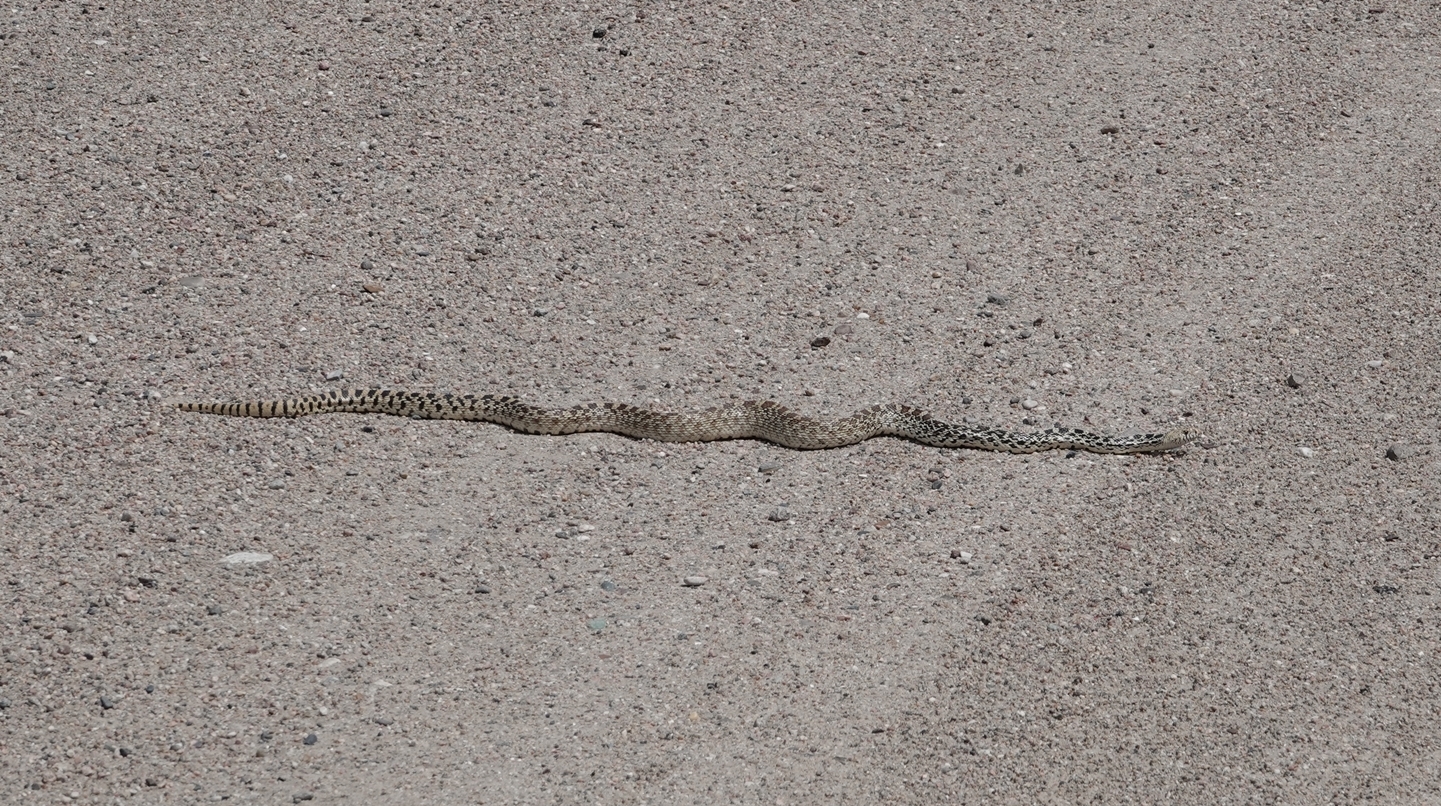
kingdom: Animalia
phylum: Chordata
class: Squamata
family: Colubridae
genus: Pituophis
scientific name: Pituophis catenifer
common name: Gopher snake
